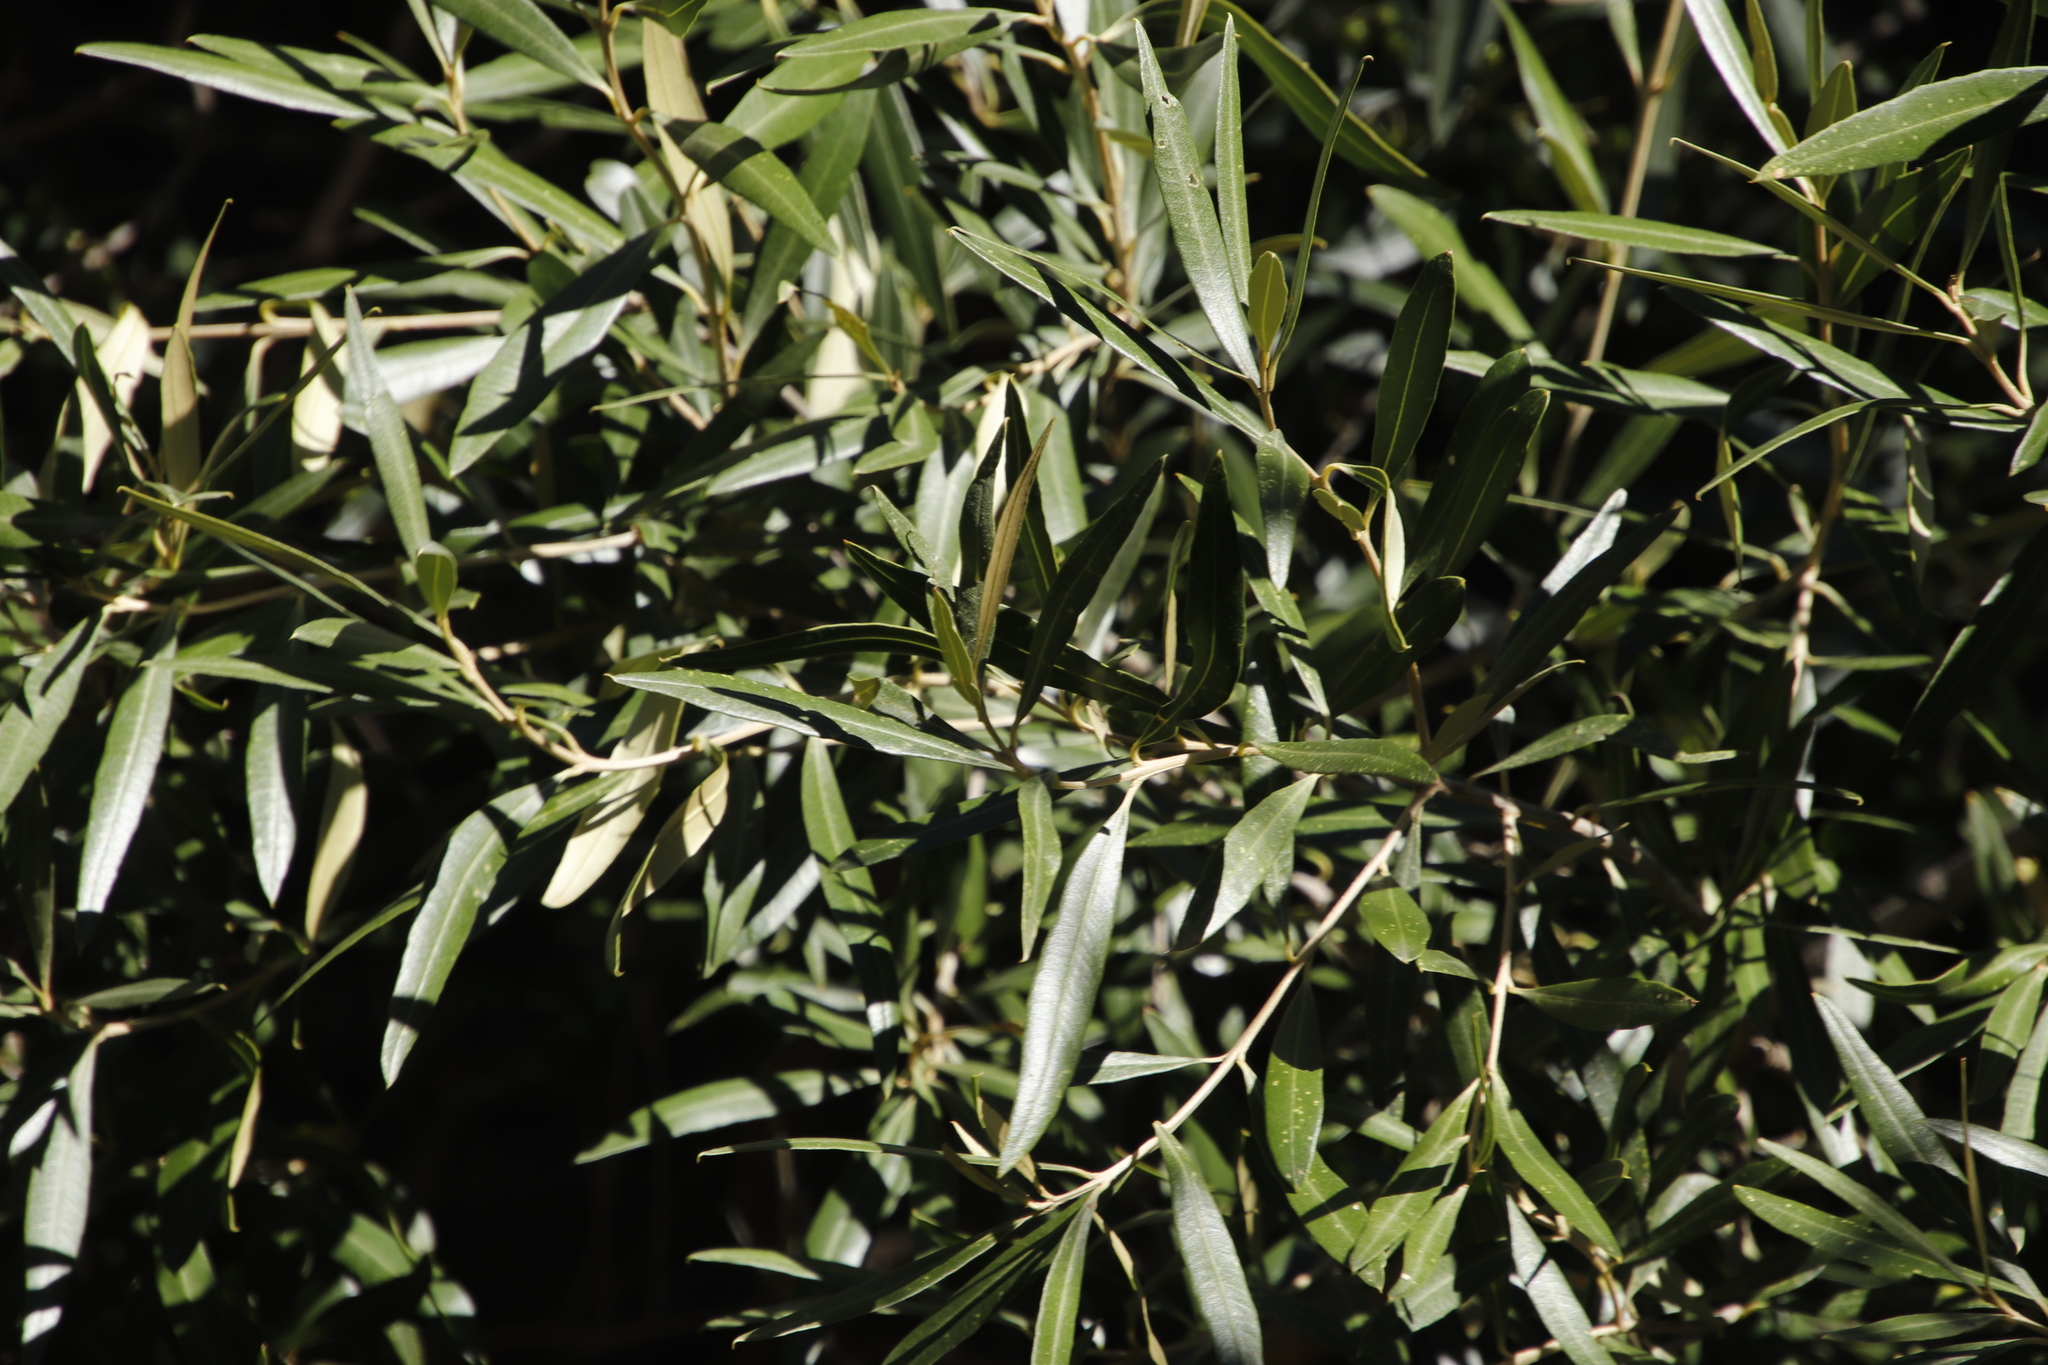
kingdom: Plantae
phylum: Tracheophyta
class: Magnoliopsida
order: Lamiales
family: Oleaceae
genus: Olea
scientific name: Olea europaea
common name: Olive
